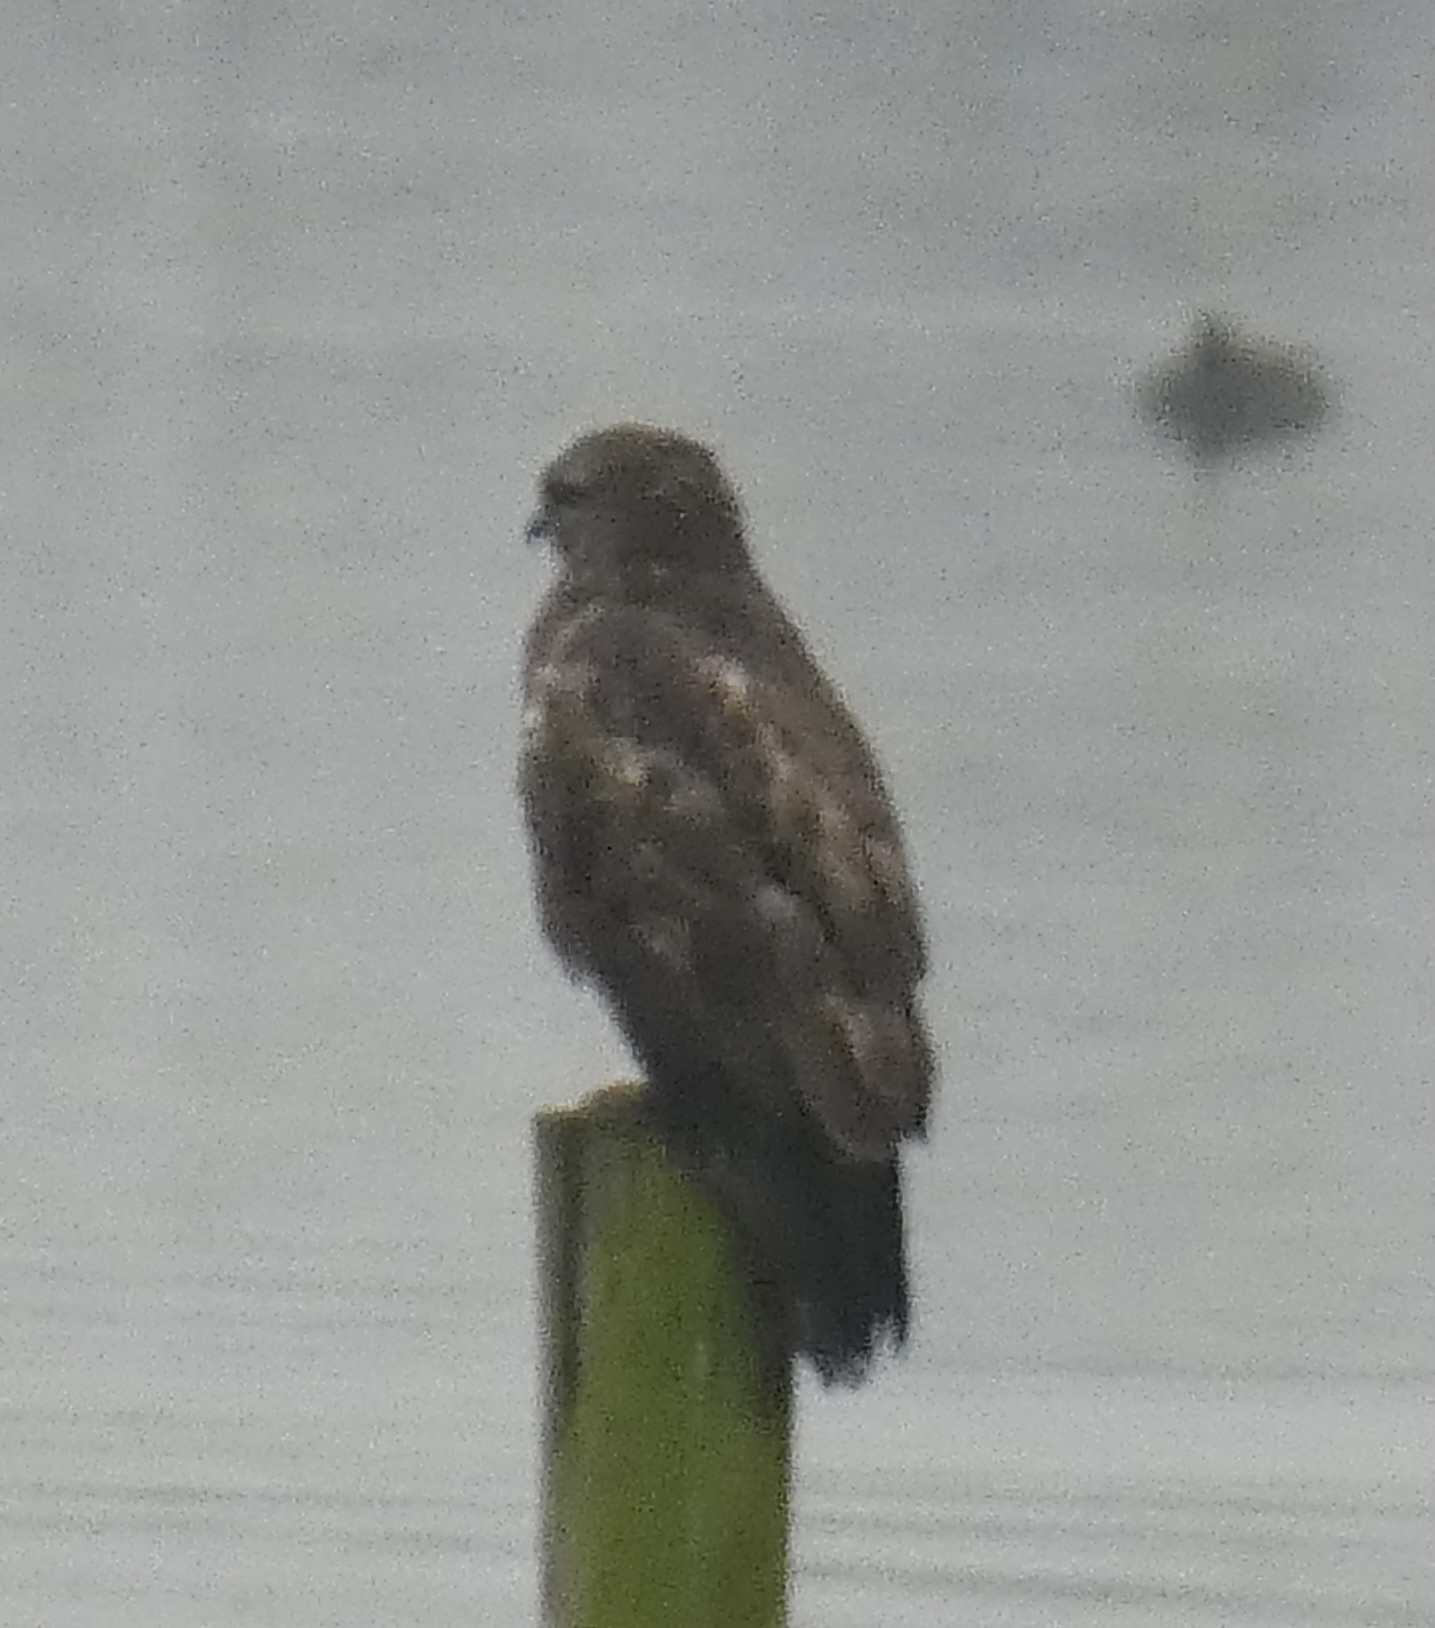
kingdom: Animalia
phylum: Chordata
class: Aves
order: Accipitriformes
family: Accipitridae
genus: Buteo
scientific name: Buteo buteo
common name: Common buzzard
